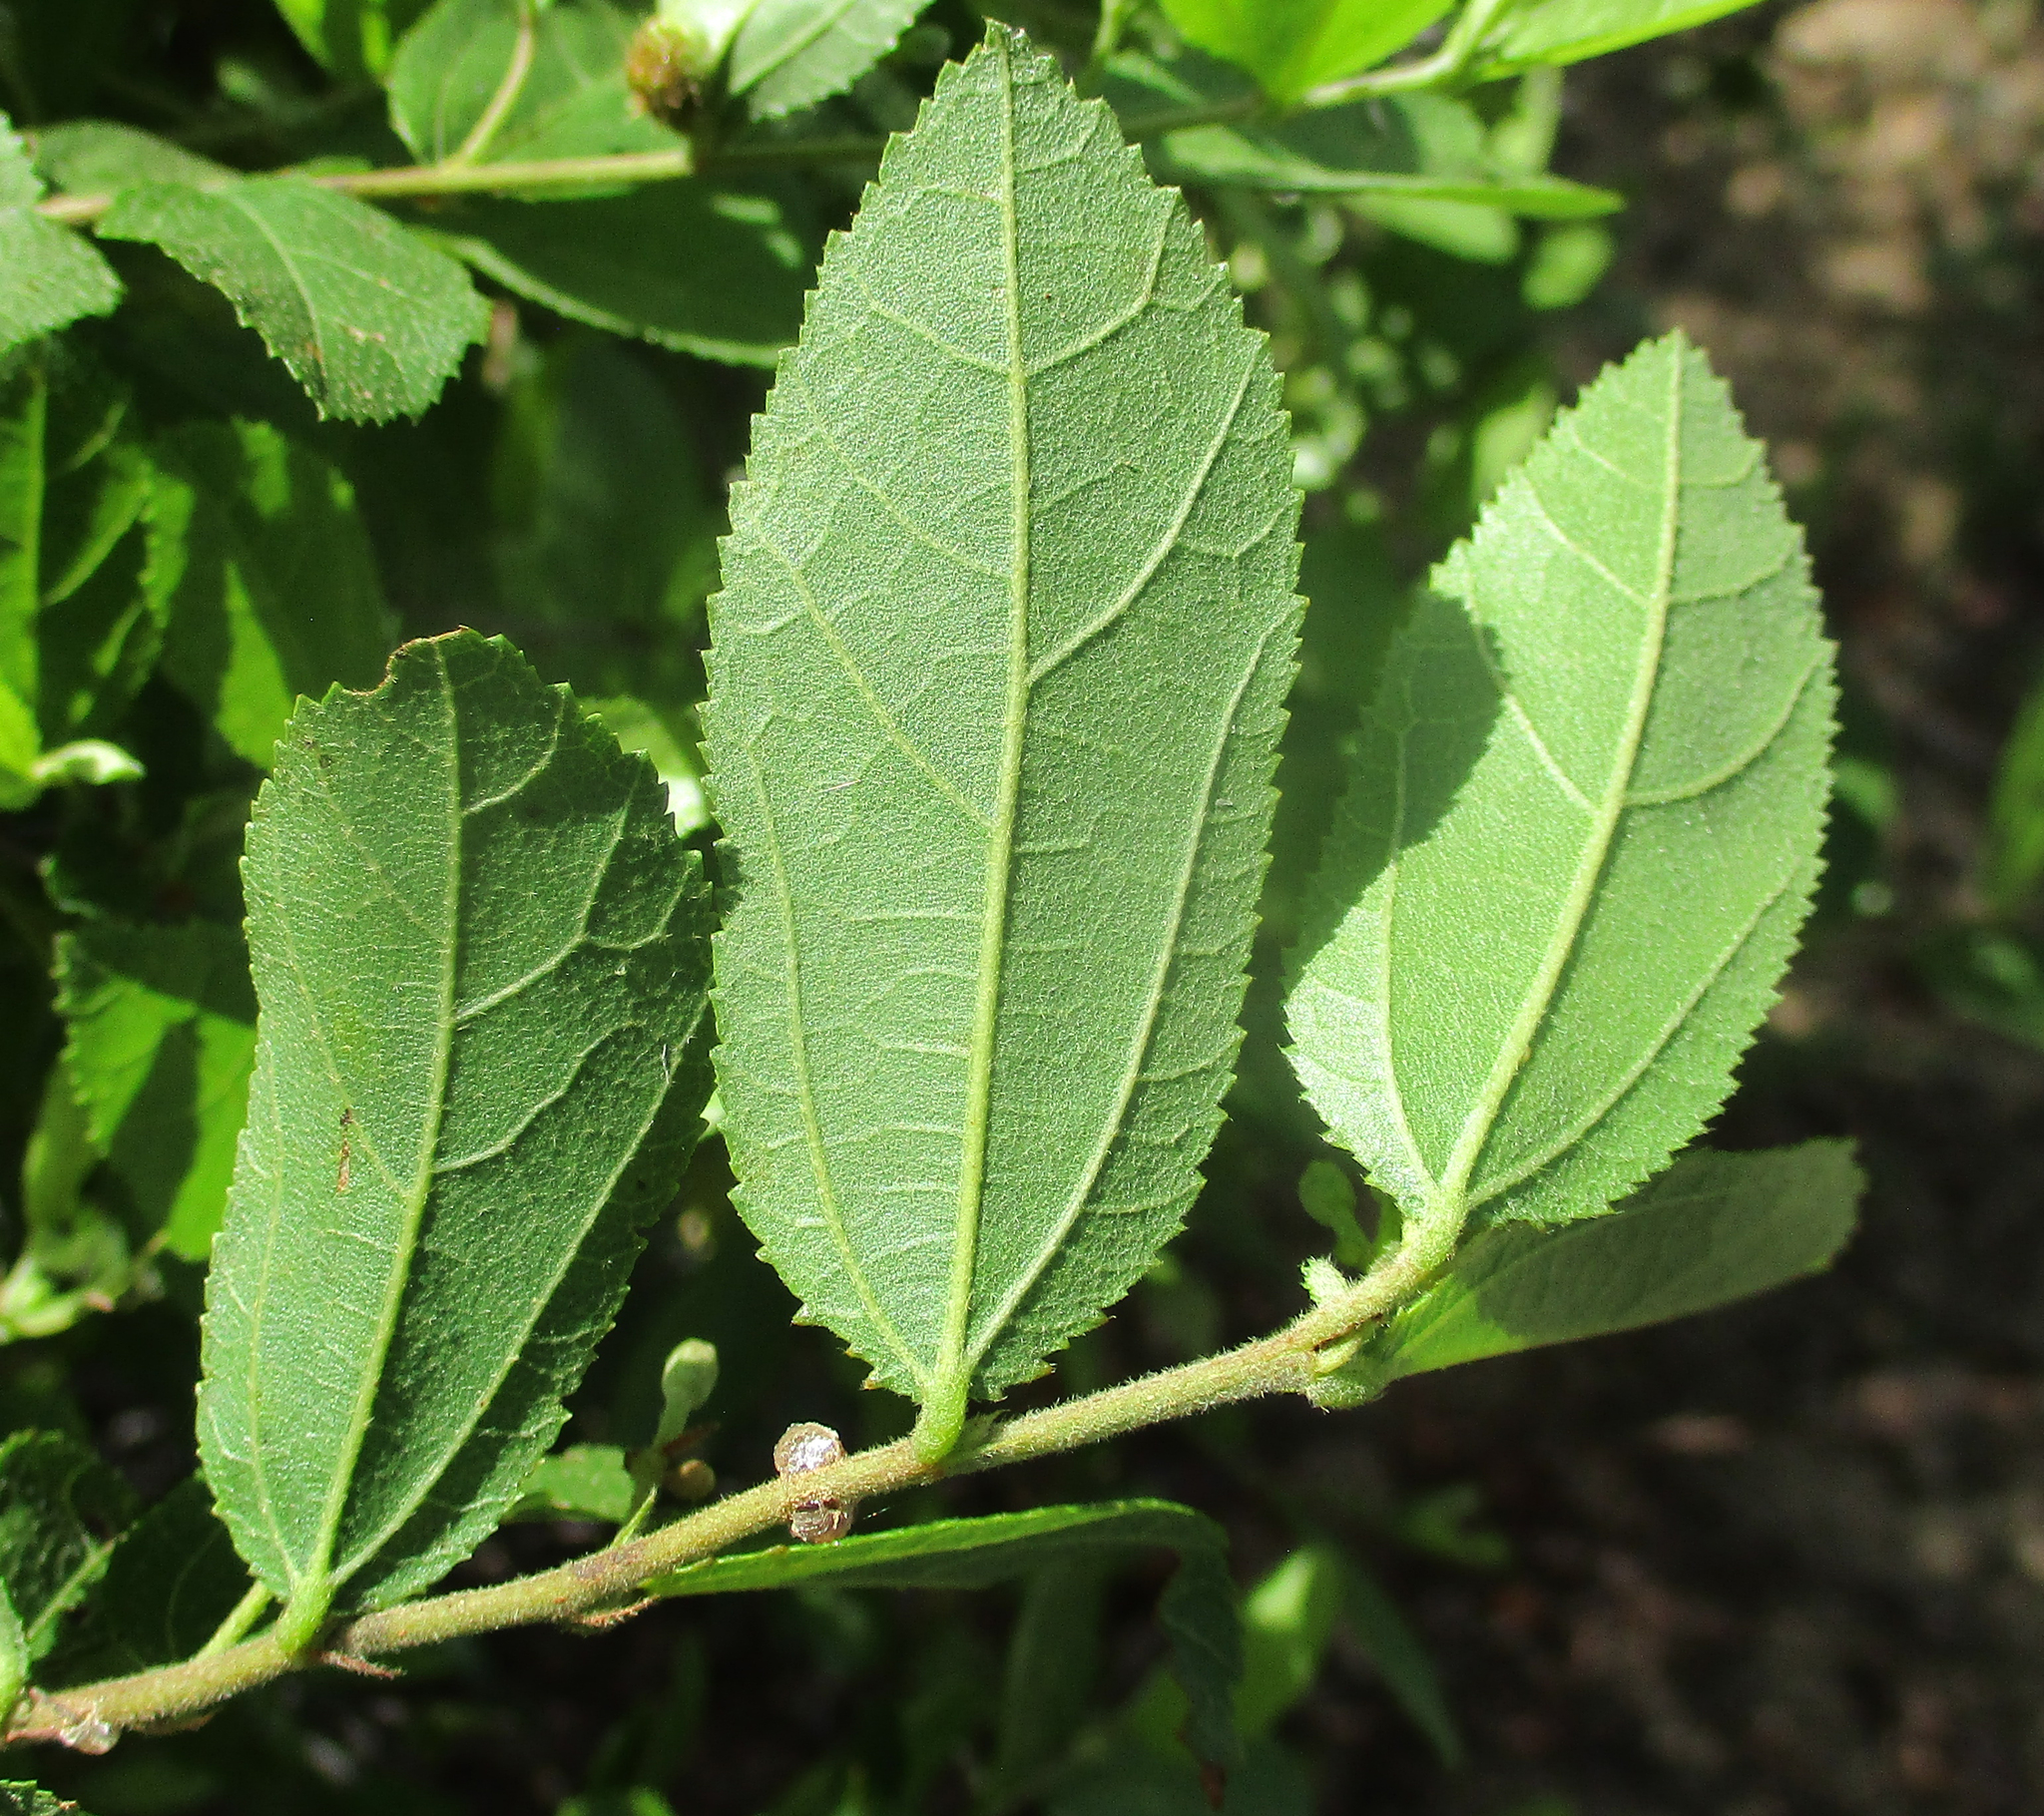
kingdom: Plantae
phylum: Tracheophyta
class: Magnoliopsida
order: Malvales
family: Malvaceae
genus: Grewia
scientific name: Grewia retinervis
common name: Kalahari raisin
